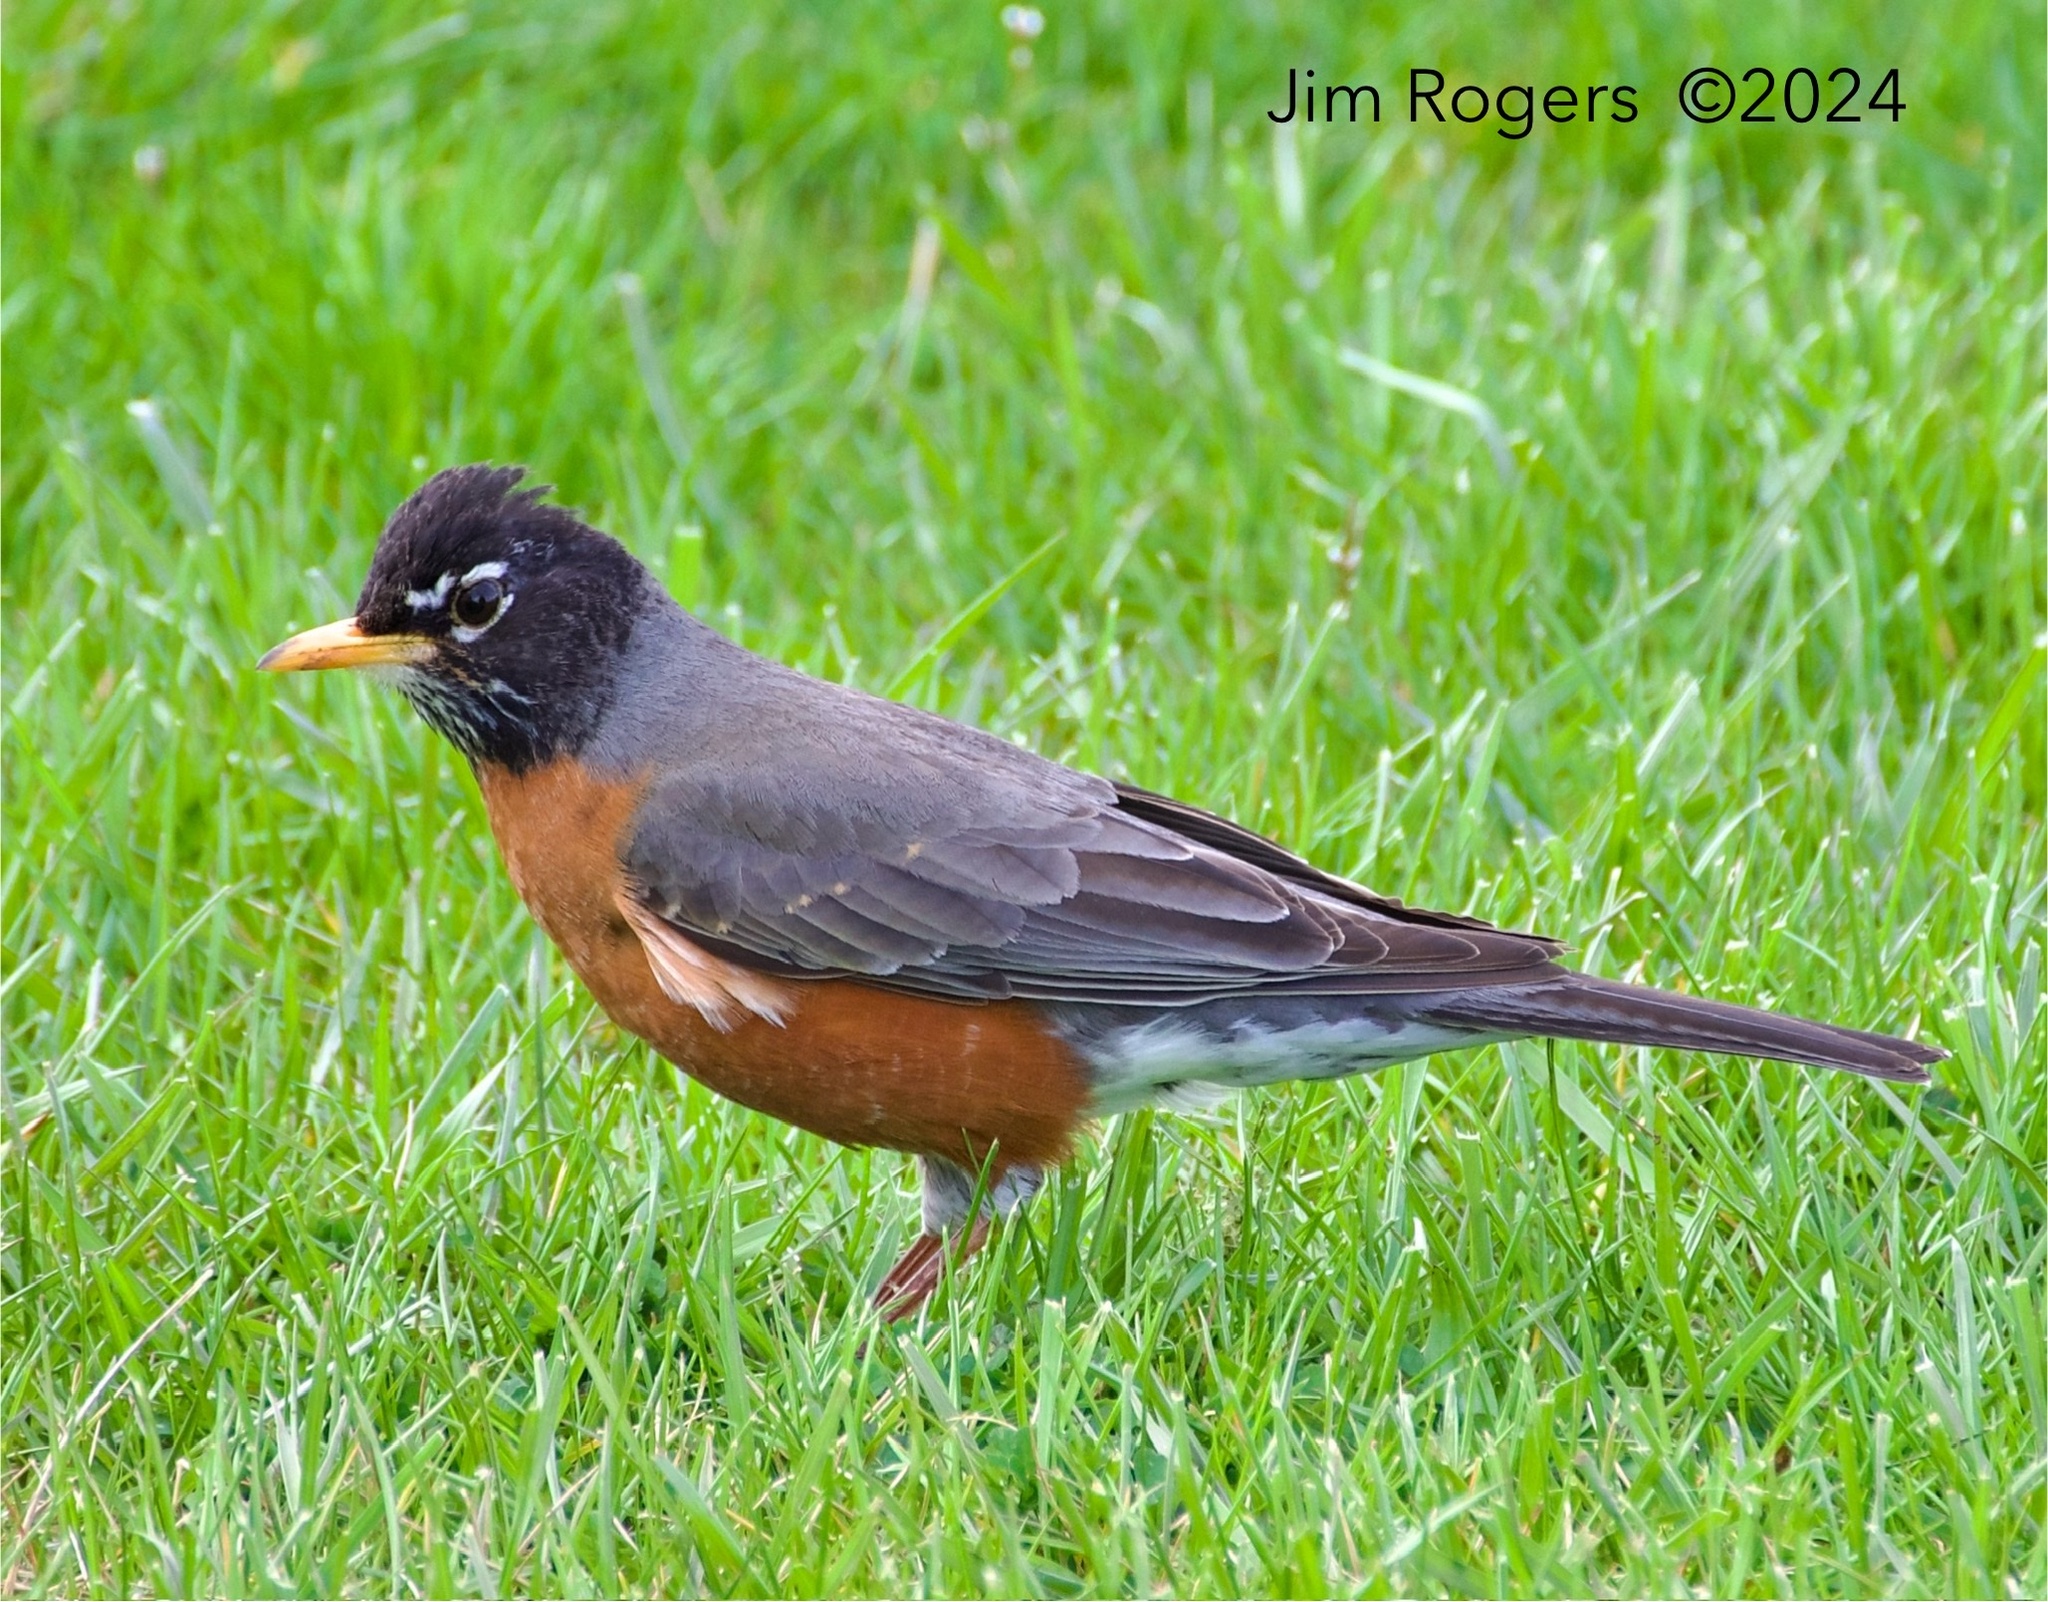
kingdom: Animalia
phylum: Chordata
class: Aves
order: Passeriformes
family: Turdidae
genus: Turdus
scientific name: Turdus migratorius
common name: American robin
